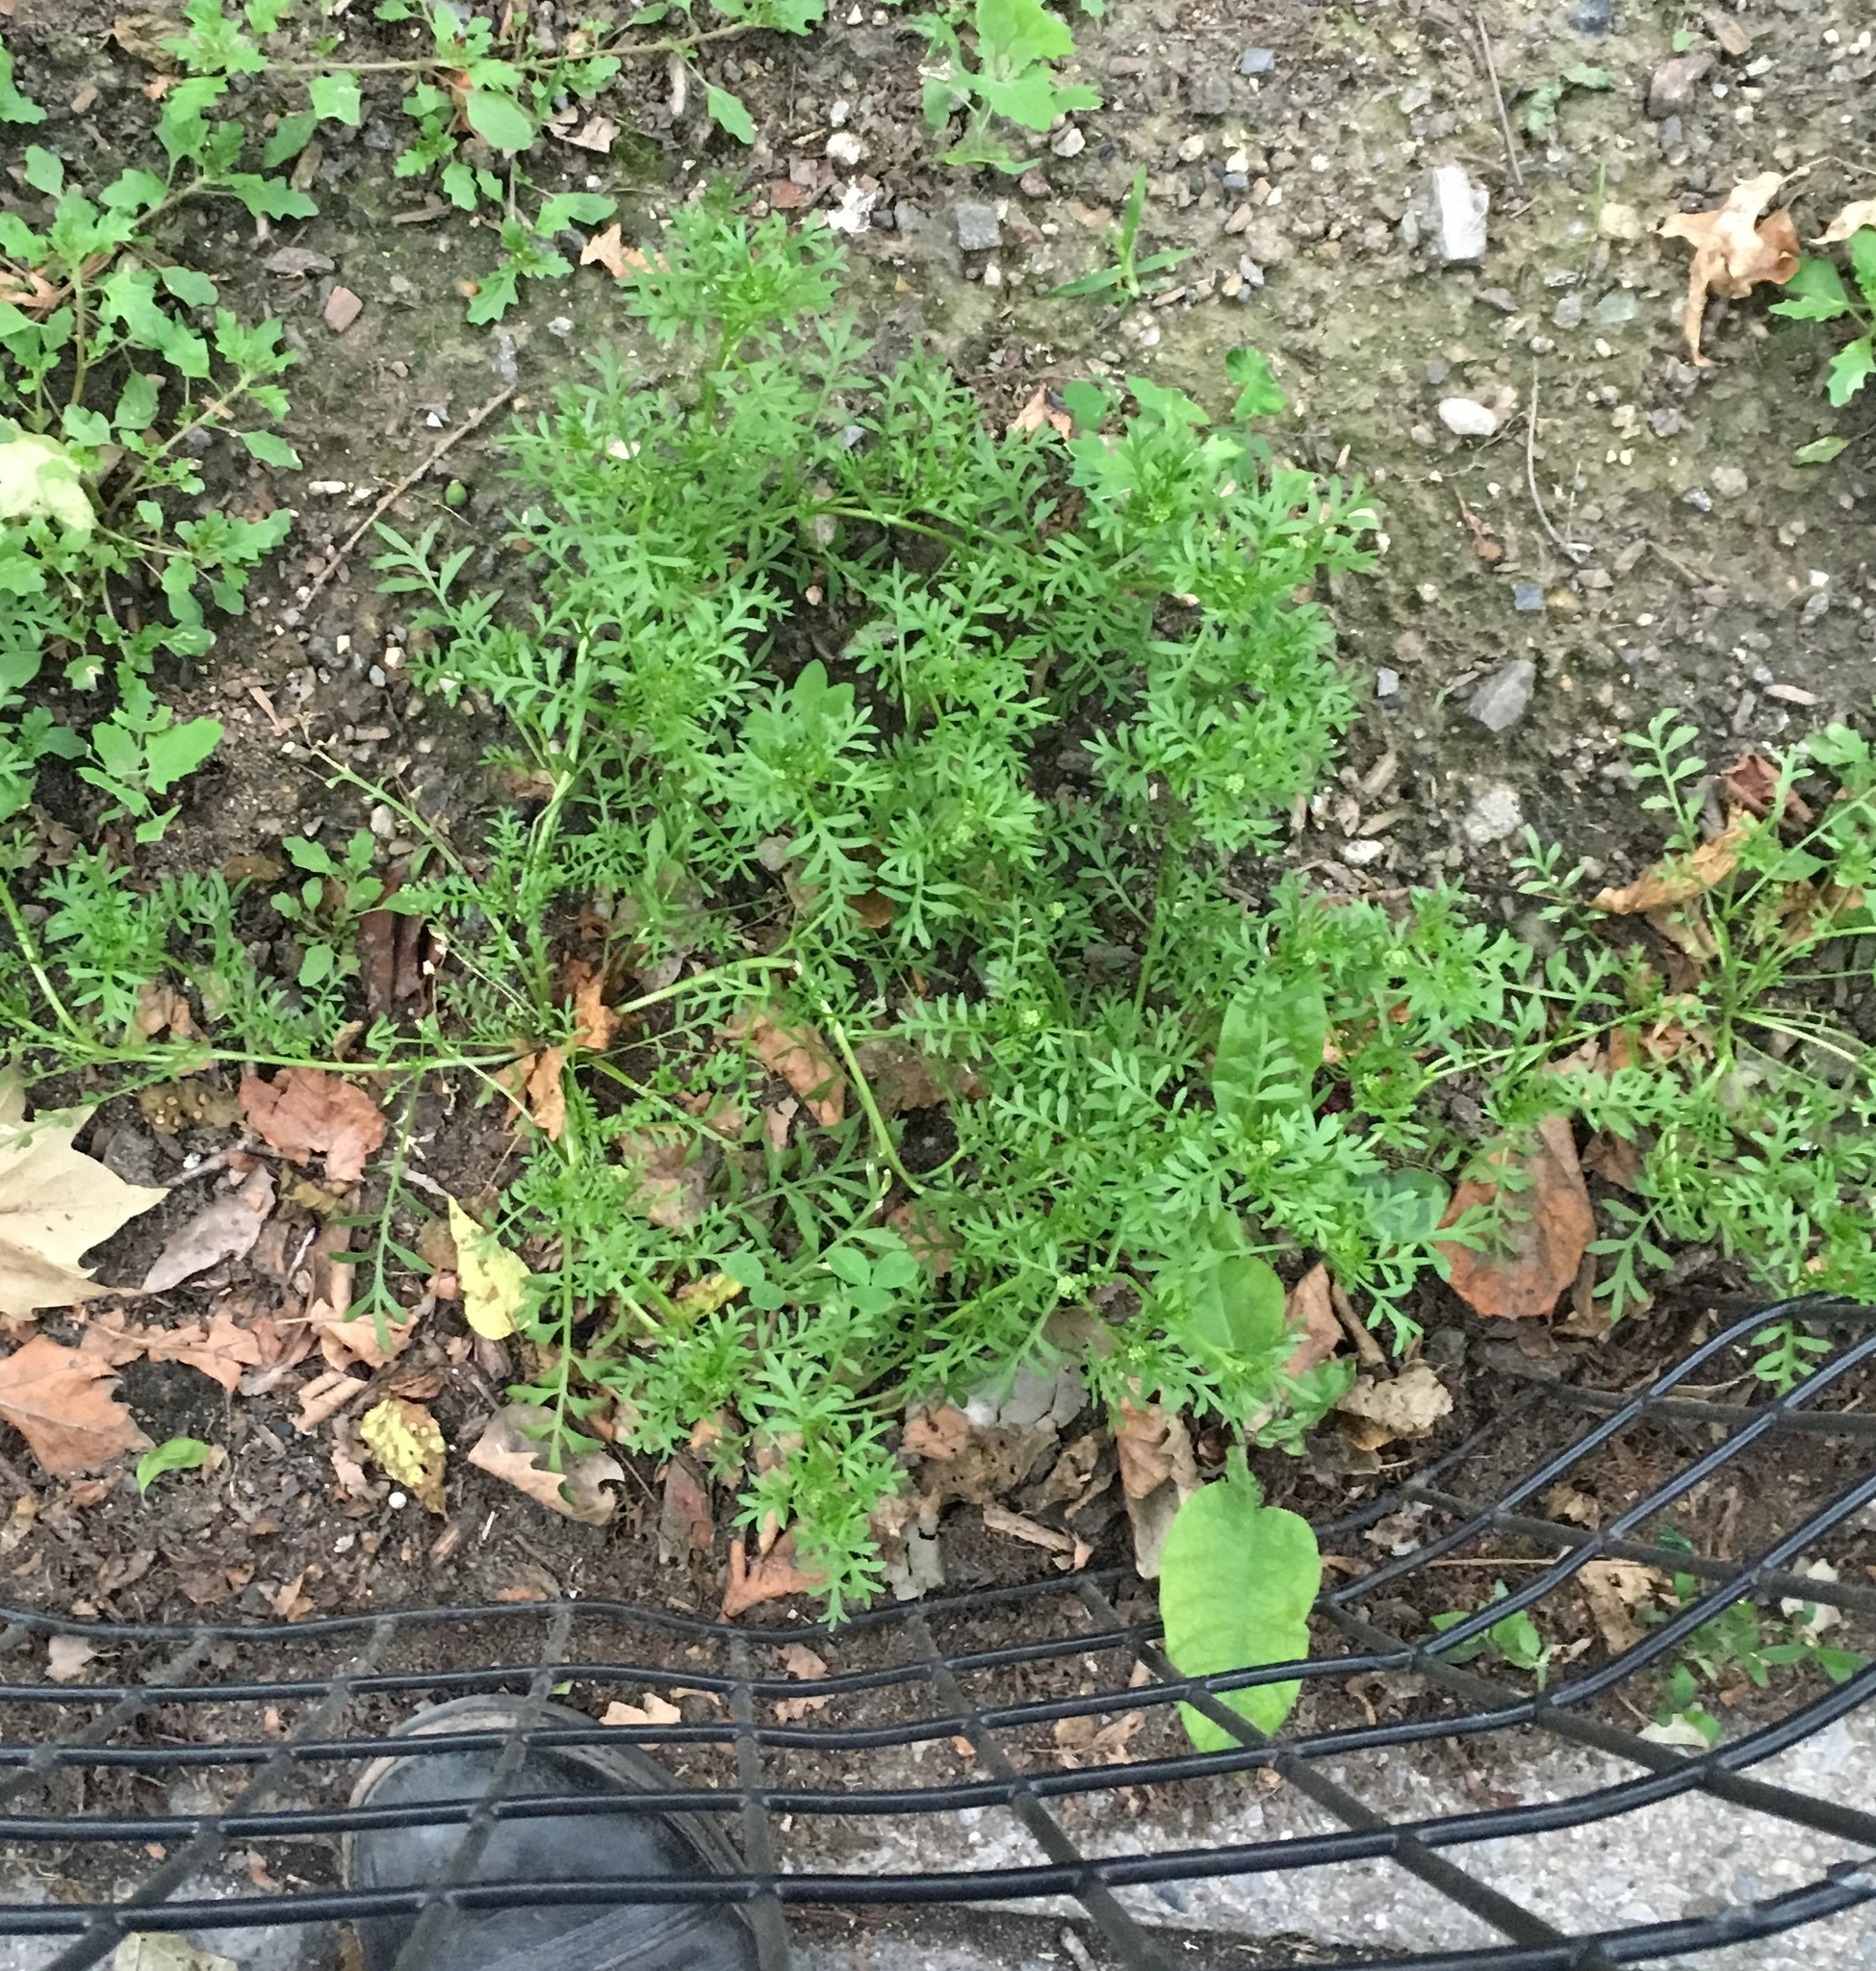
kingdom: Plantae
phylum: Tracheophyta
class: Magnoliopsida
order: Brassicales
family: Brassicaceae
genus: Lepidium
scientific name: Lepidium didymum
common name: Lesser swinecress
